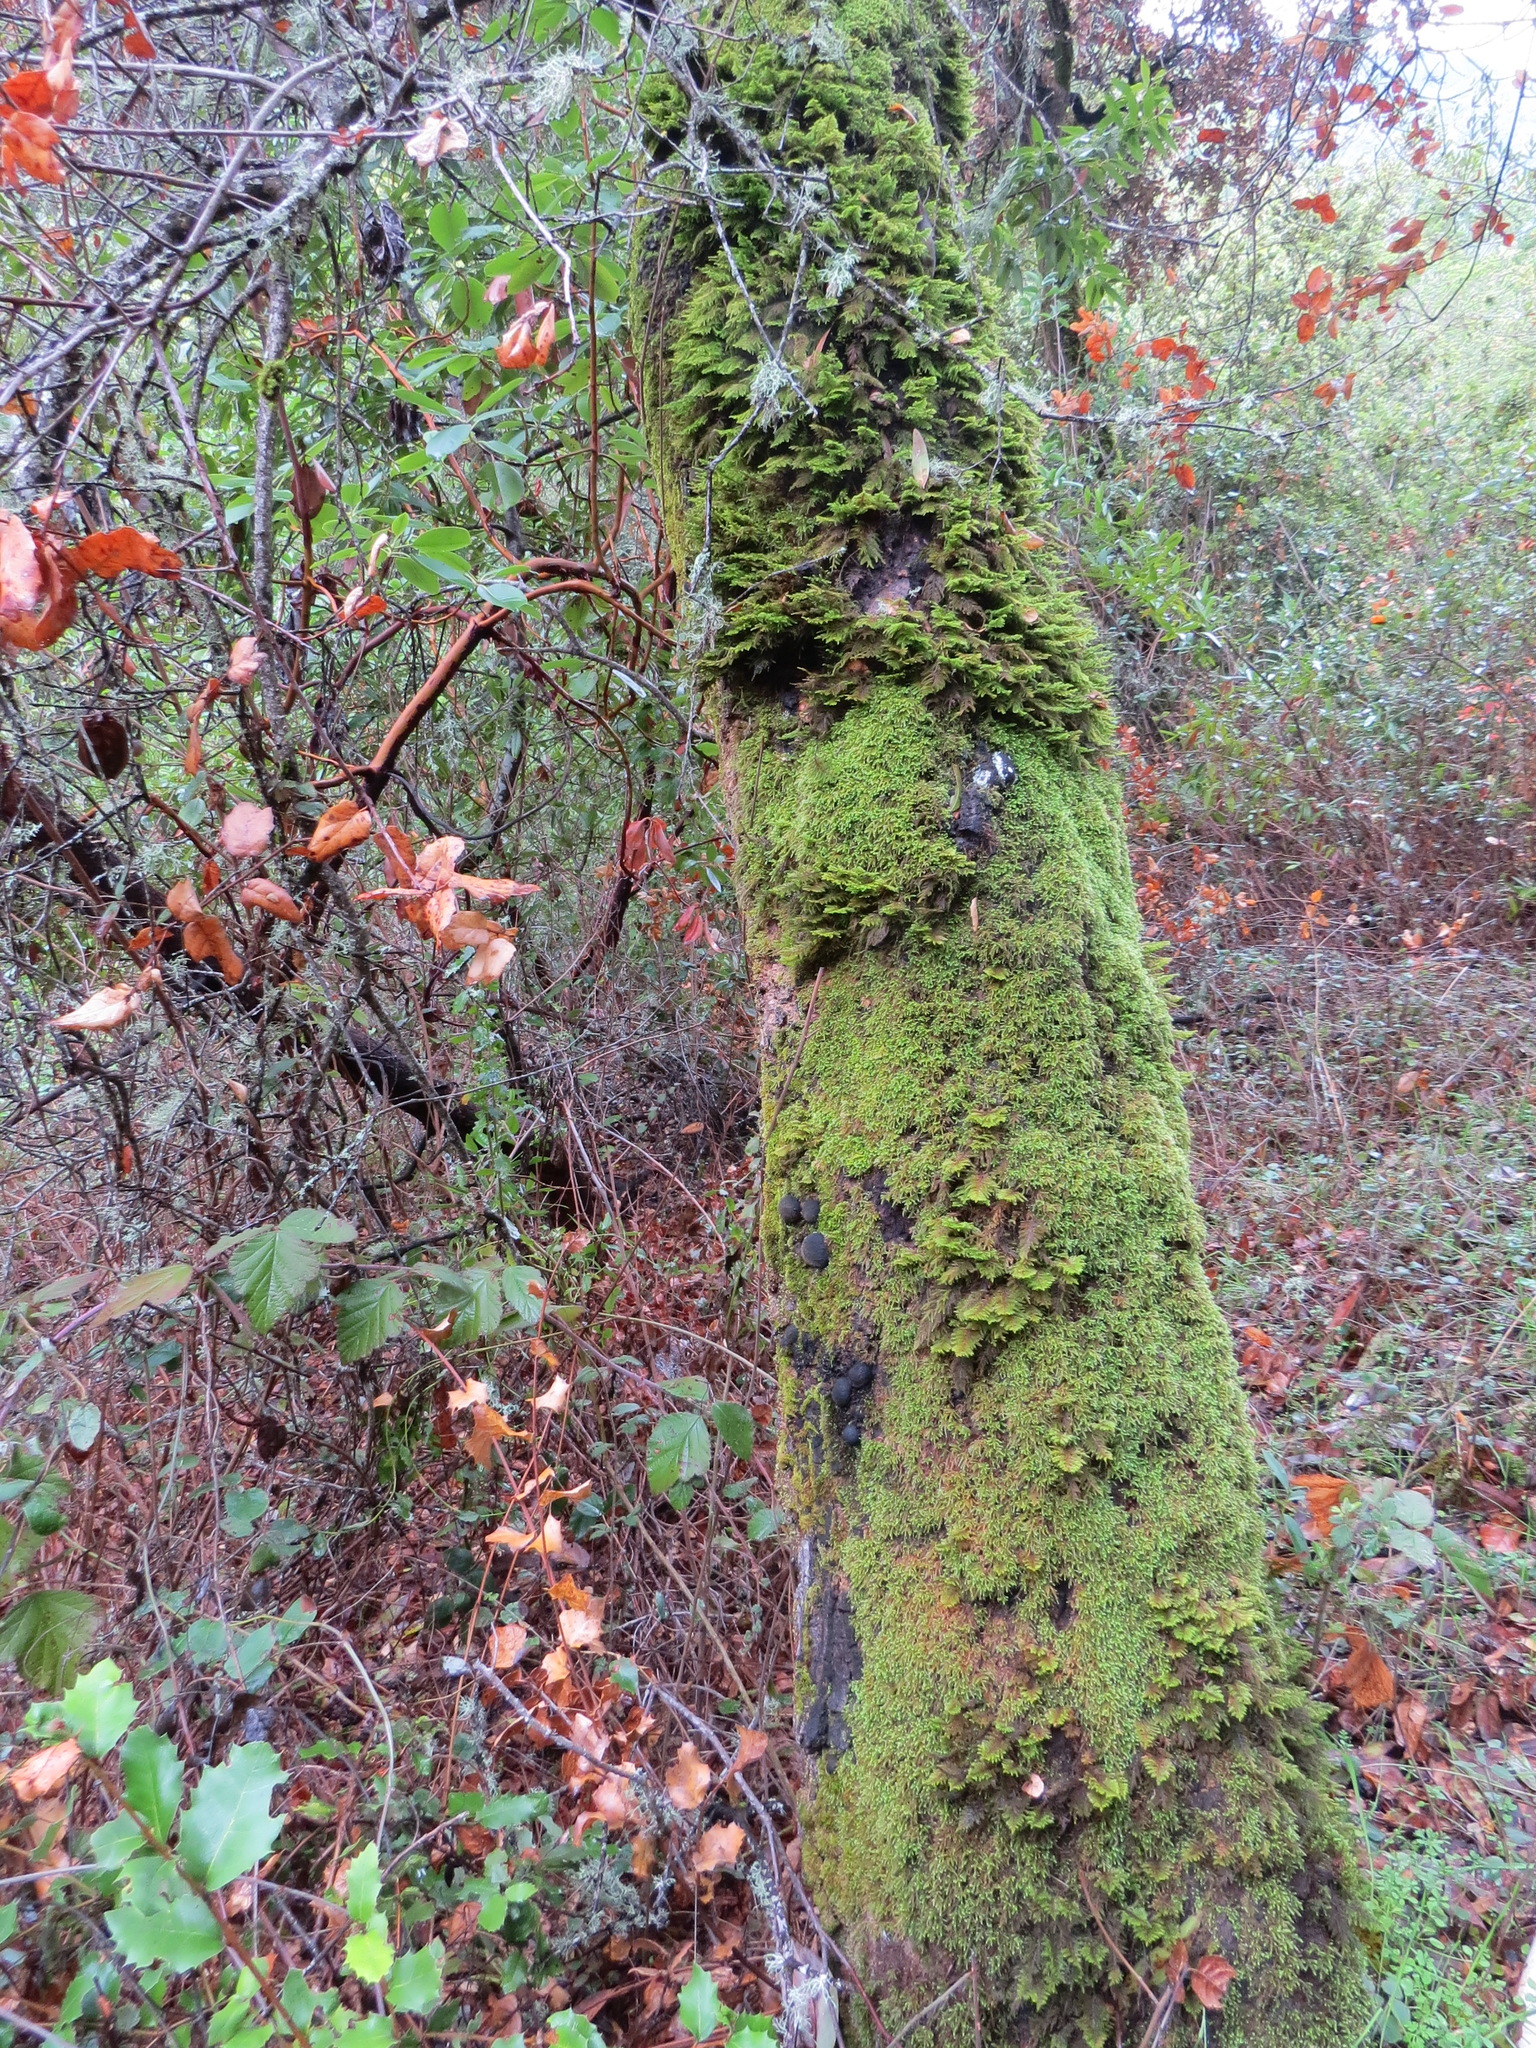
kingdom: Fungi
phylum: Ascomycota
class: Sordariomycetes
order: Xylariales
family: Hypoxylaceae
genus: Annulohypoxylon
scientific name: Annulohypoxylon thouarsianum
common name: Cramp balls
